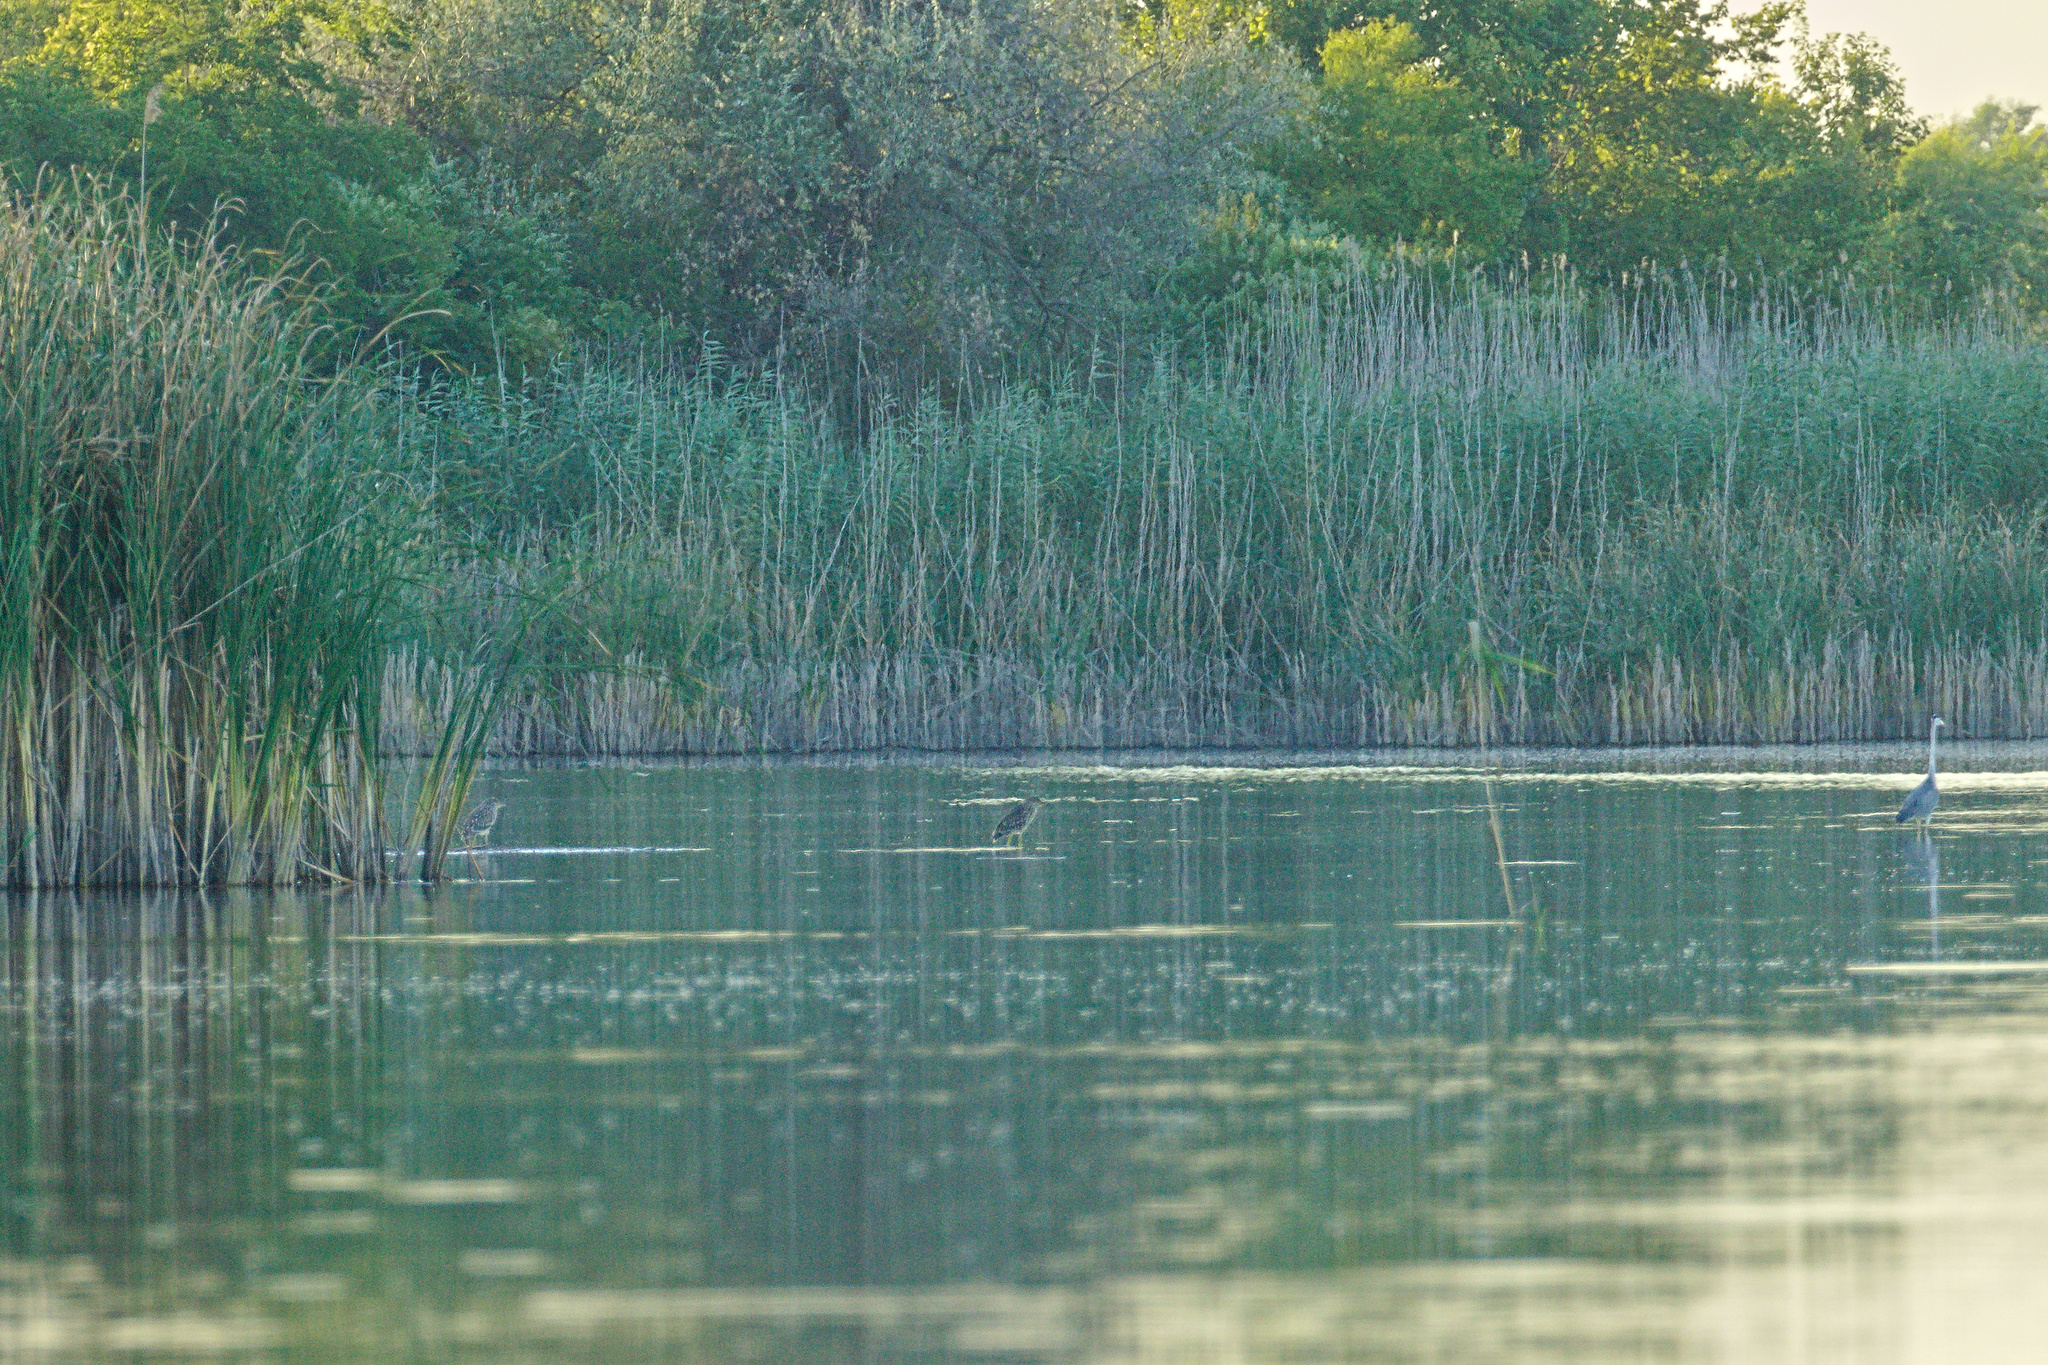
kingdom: Animalia
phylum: Chordata
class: Aves
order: Pelecaniformes
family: Ardeidae
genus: Nycticorax
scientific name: Nycticorax nycticorax
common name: Black-crowned night heron
